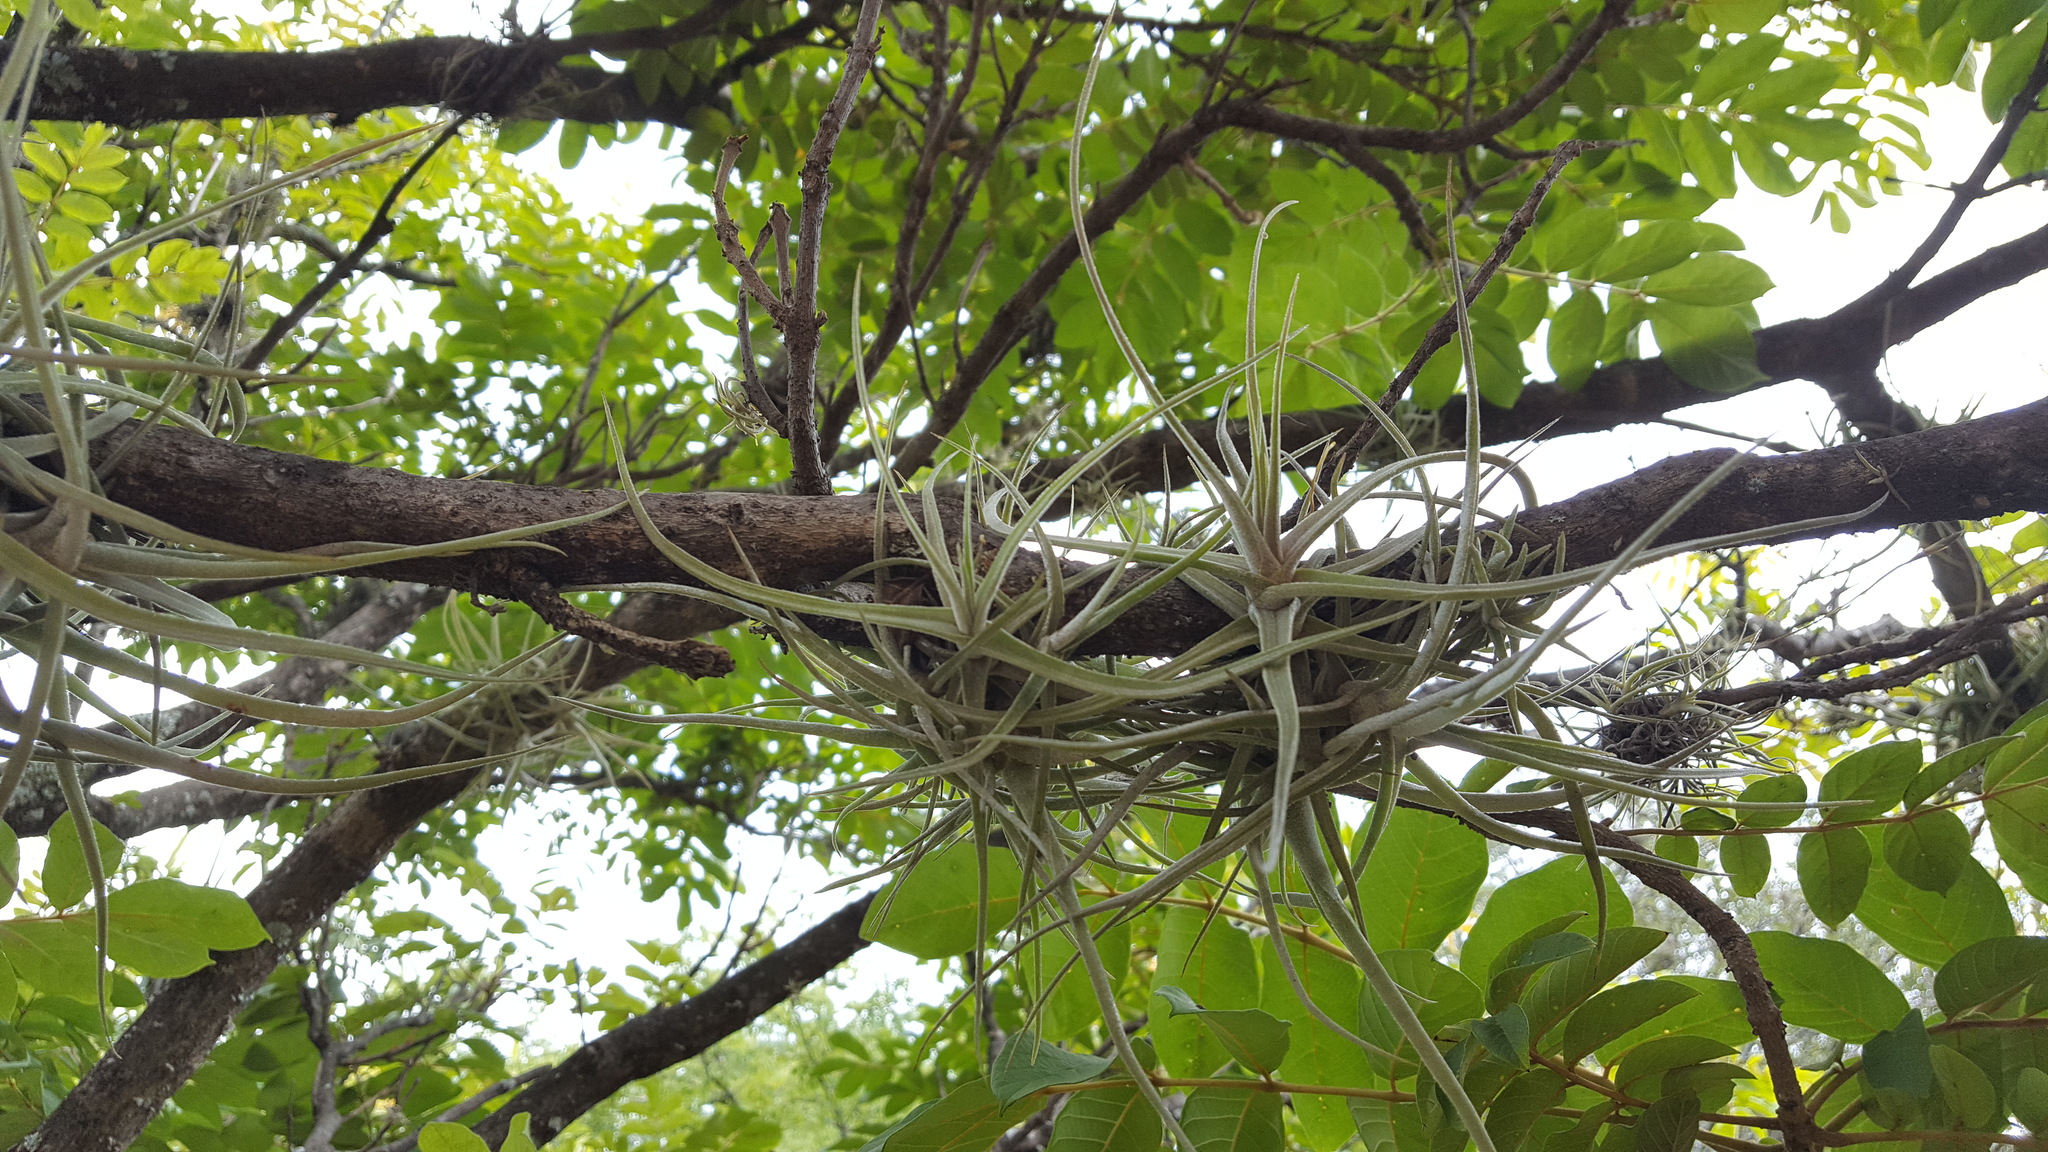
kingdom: Plantae
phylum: Tracheophyta
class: Liliopsida
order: Poales
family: Bromeliaceae
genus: Tillandsia
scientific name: Tillandsia schiedeana
